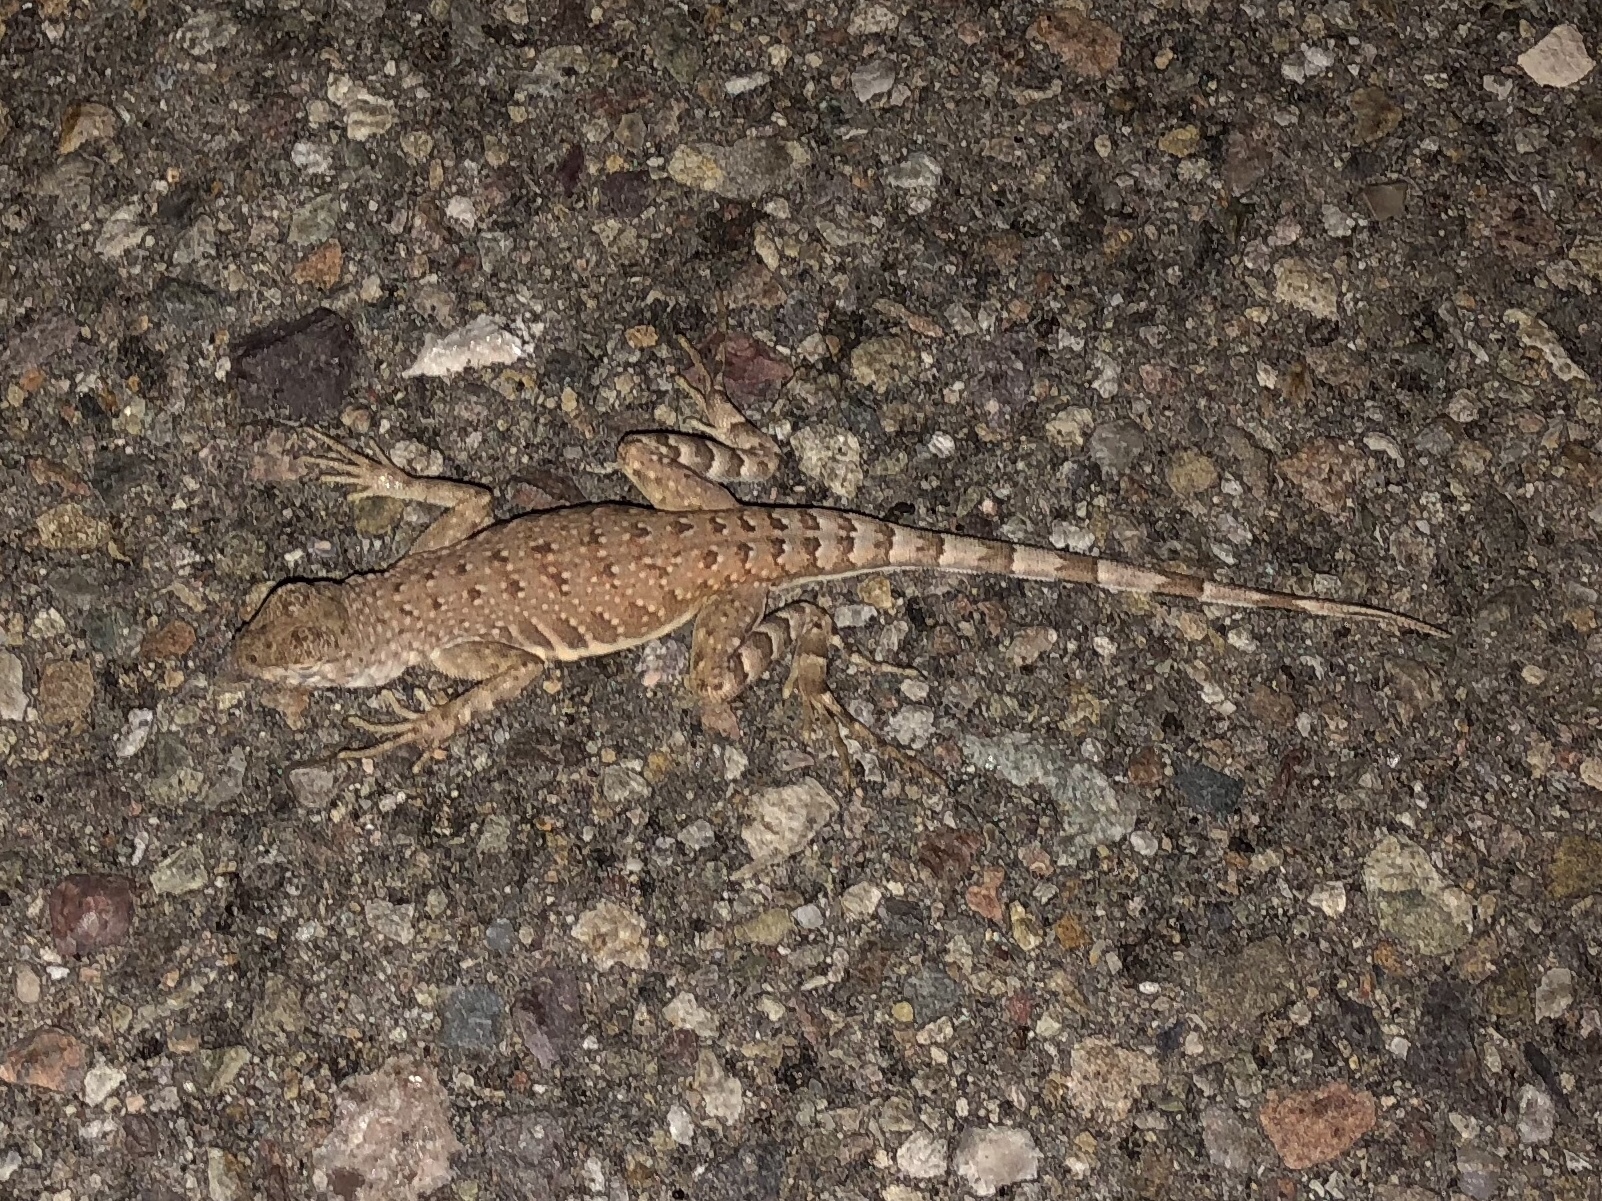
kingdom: Animalia
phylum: Chordata
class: Squamata
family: Phrynosomatidae
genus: Callisaurus
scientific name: Callisaurus draconoides
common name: Zebra-tailed lizard
